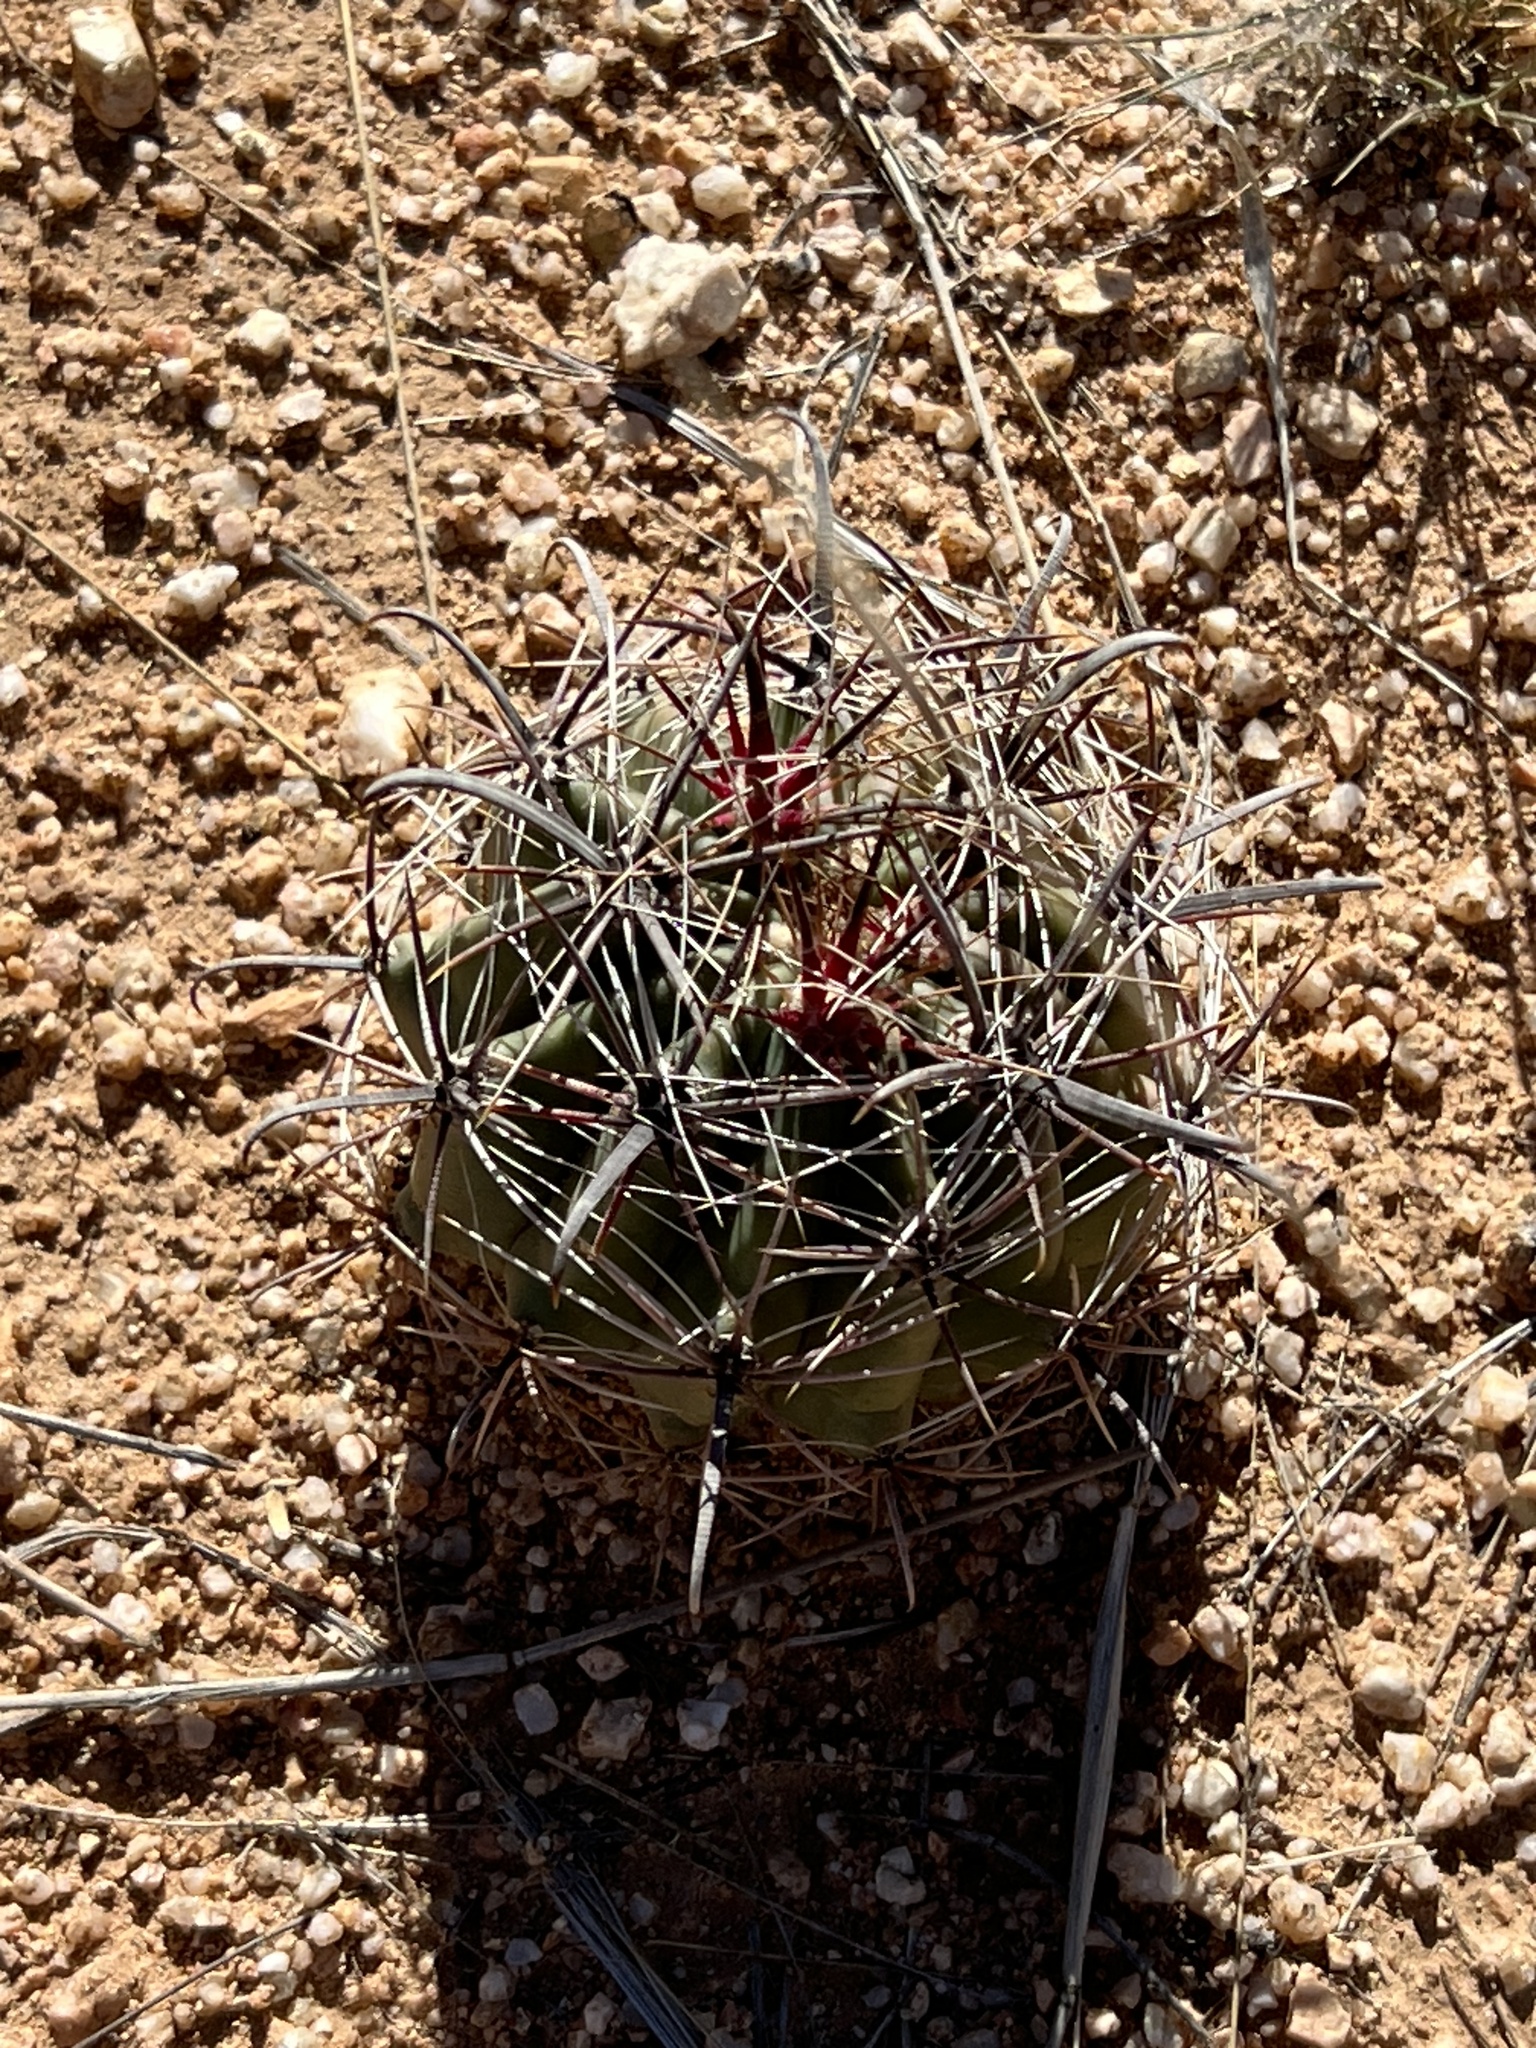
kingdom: Plantae
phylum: Tracheophyta
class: Magnoliopsida
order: Caryophyllales
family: Cactaceae
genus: Ferocactus
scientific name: Ferocactus wislizeni
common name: Candy barrel cactus
